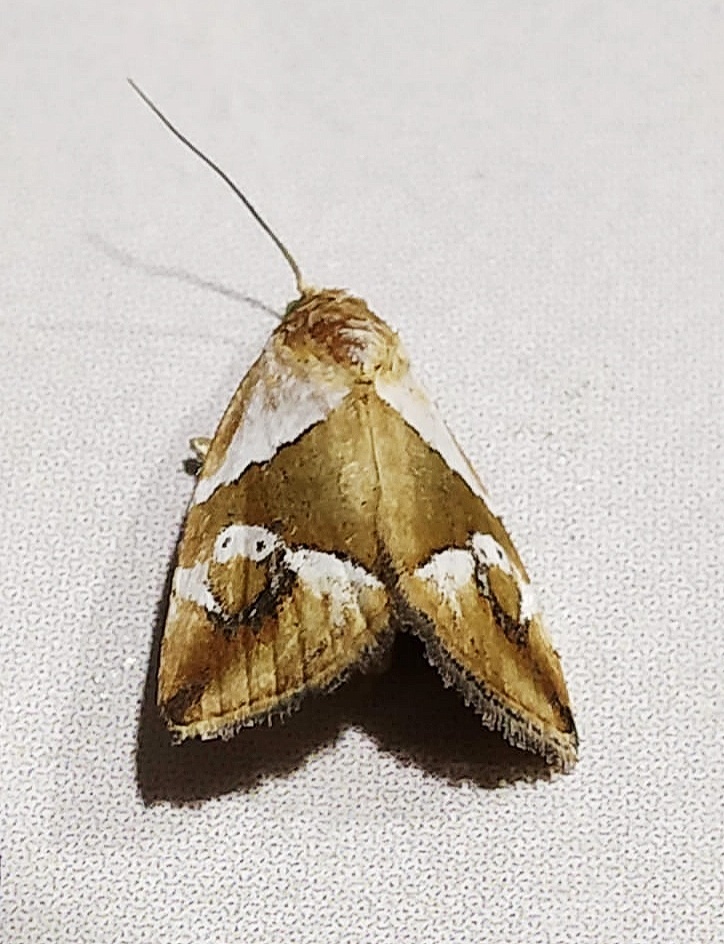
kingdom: Animalia
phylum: Arthropoda
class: Insecta
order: Lepidoptera
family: Noctuidae
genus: Maliattha
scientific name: Maliattha separata
